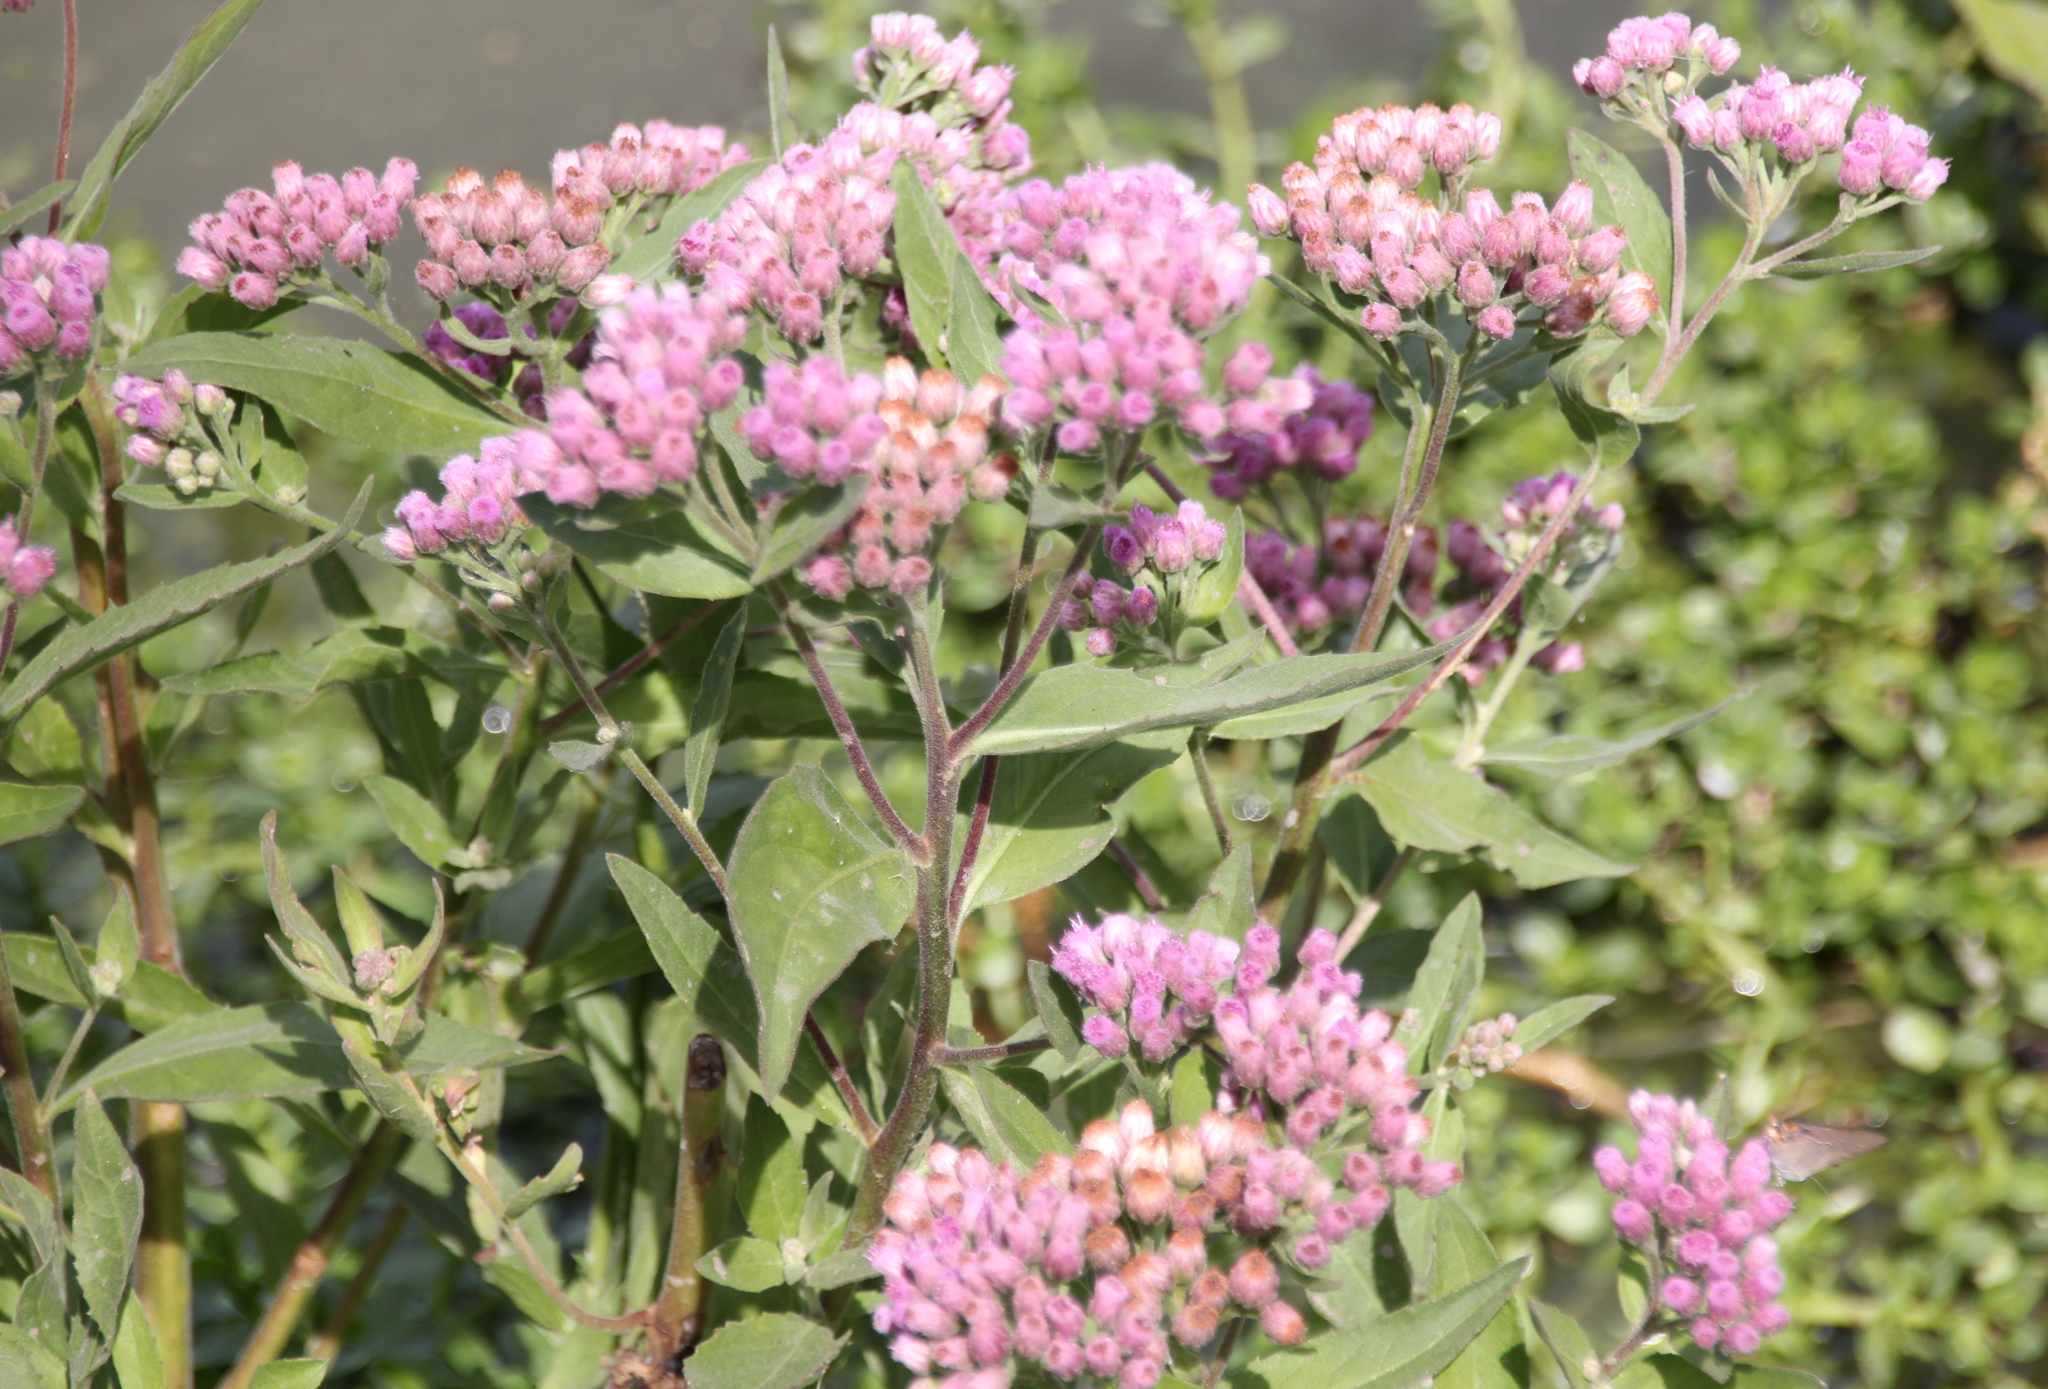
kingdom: Plantae
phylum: Tracheophyta
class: Magnoliopsida
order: Asterales
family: Asteraceae
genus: Pluchea
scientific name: Pluchea odorata
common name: Saltmarsh fleabane
